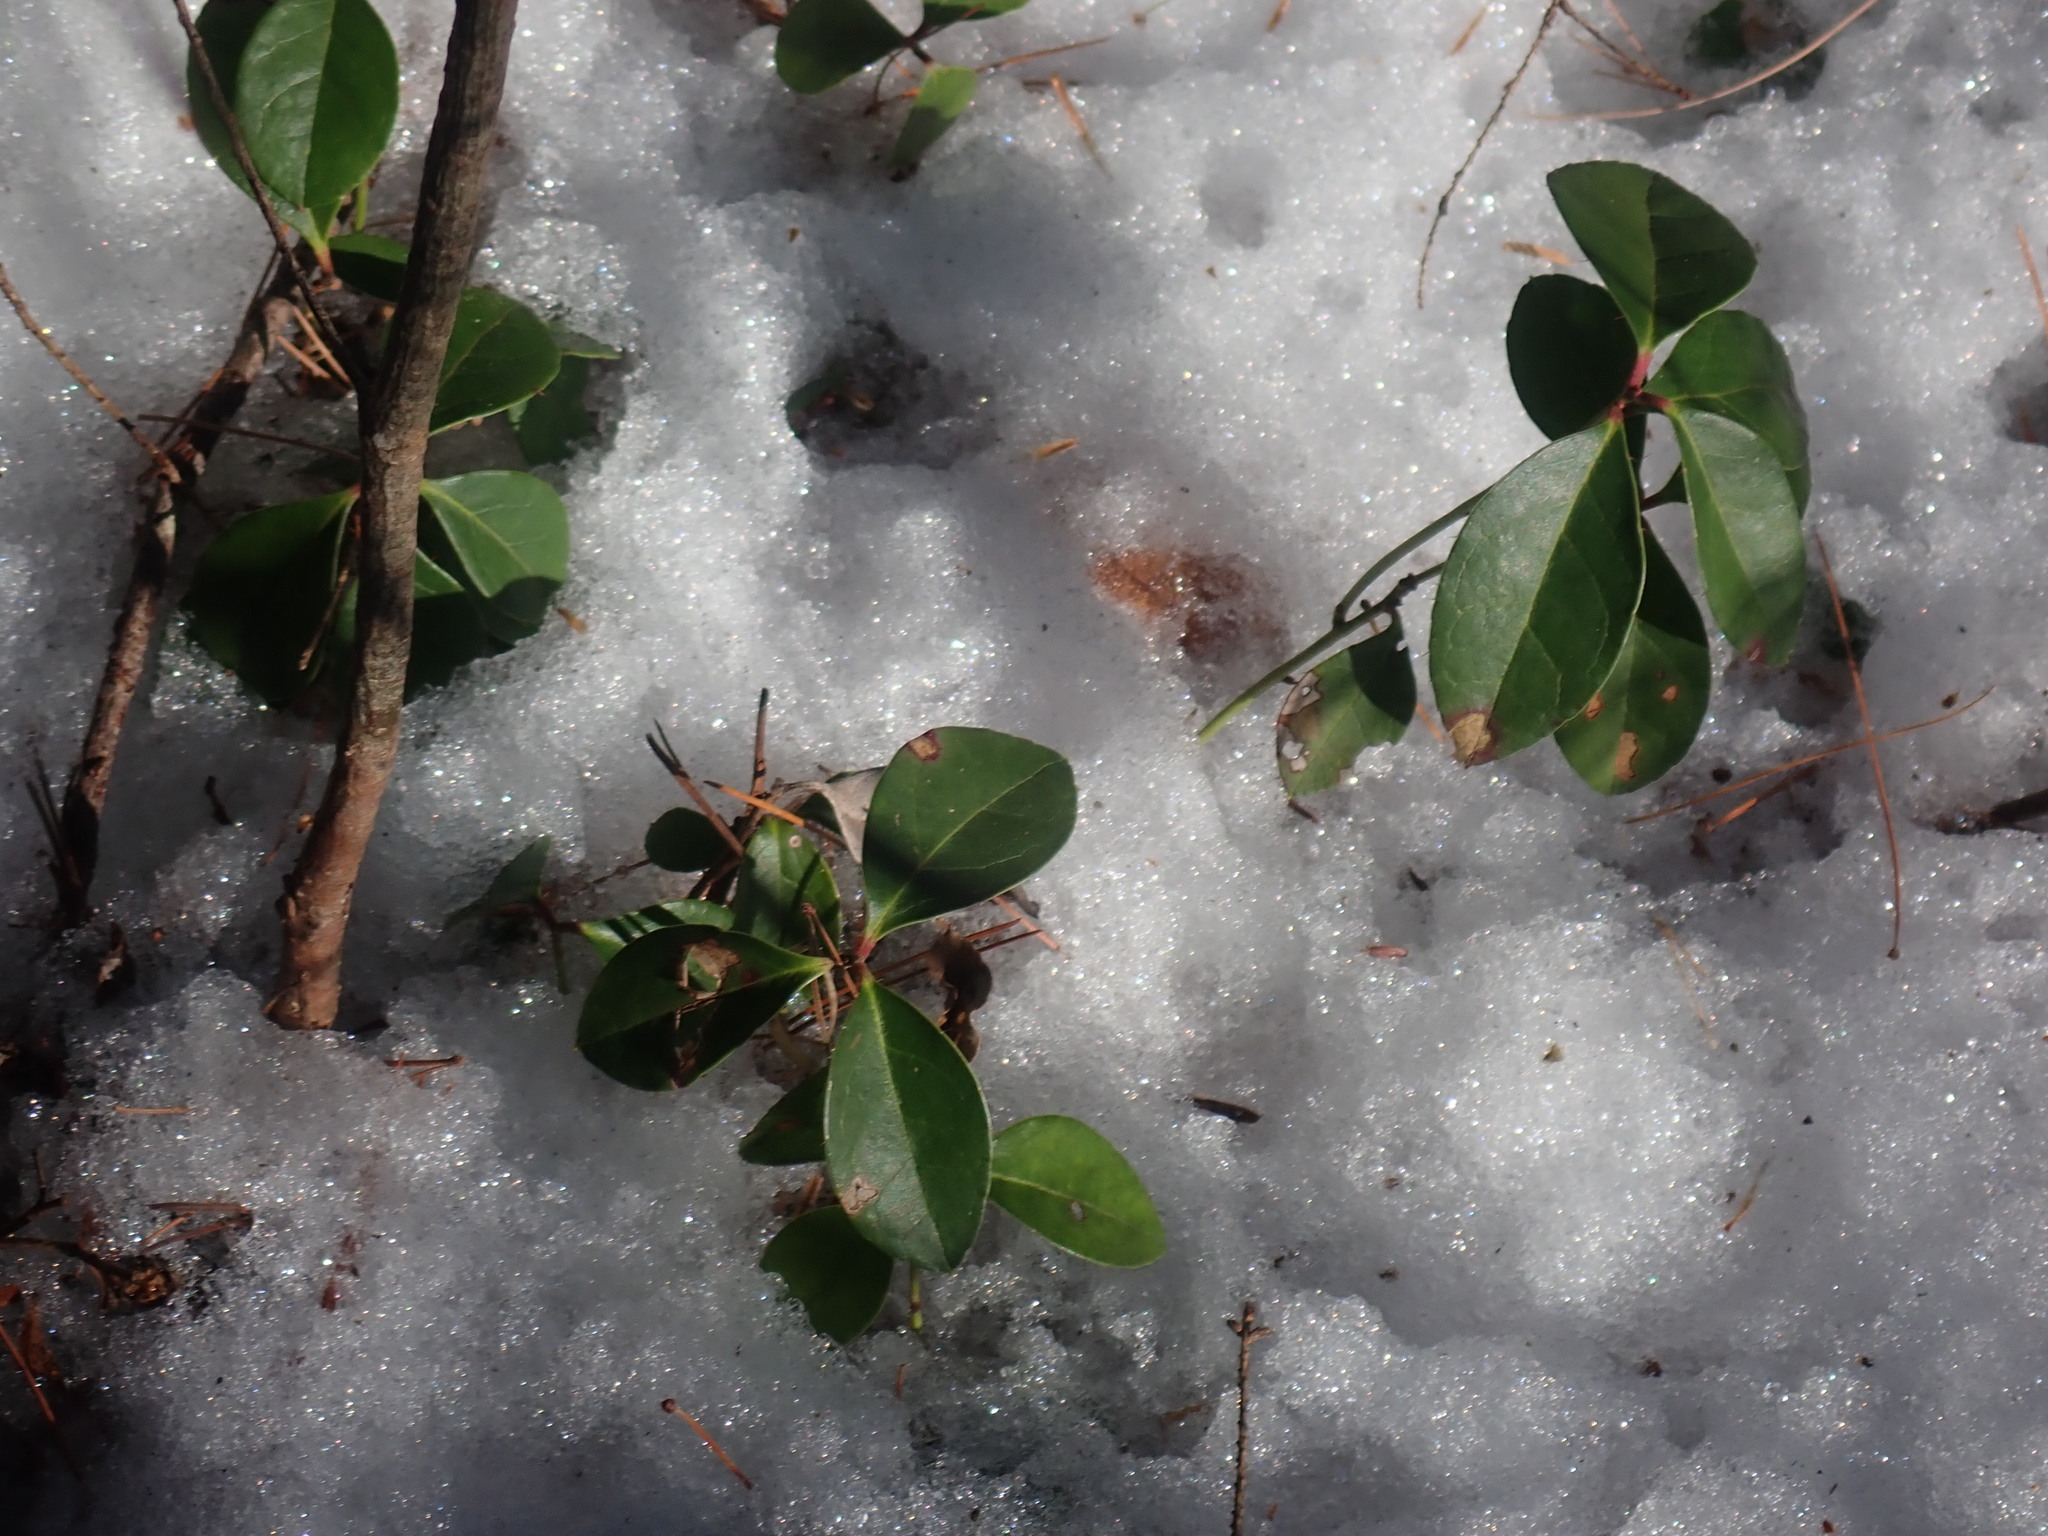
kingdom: Plantae
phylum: Tracheophyta
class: Magnoliopsida
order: Ericales
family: Ericaceae
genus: Gaultheria
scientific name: Gaultheria procumbens
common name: Checkerberry
